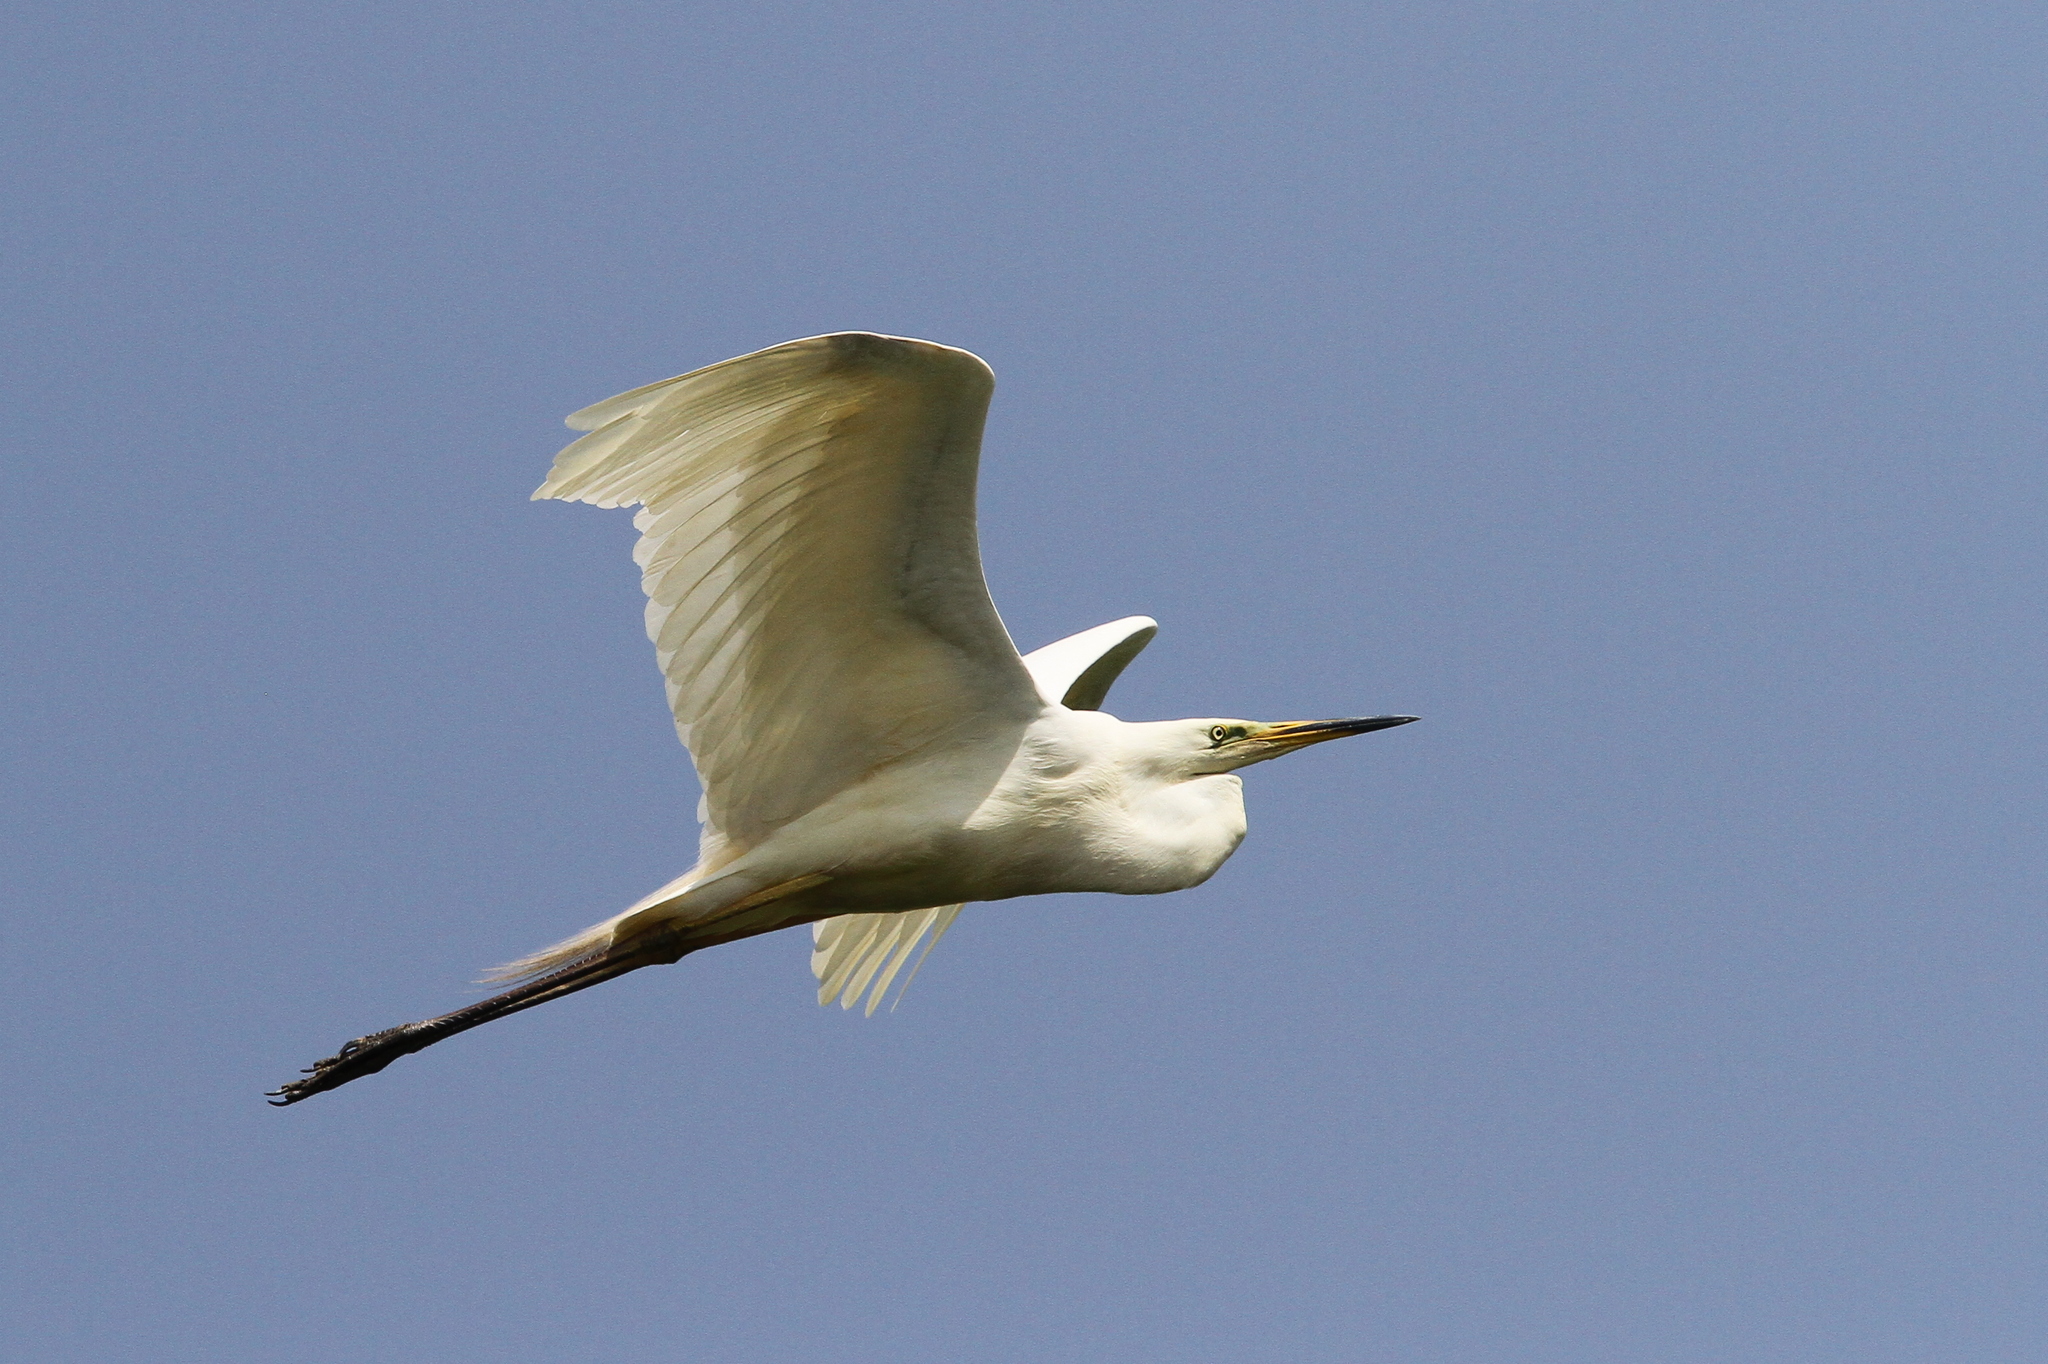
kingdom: Animalia
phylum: Chordata
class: Aves
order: Pelecaniformes
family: Ardeidae
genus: Ardea
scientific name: Ardea alba
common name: Great egret
